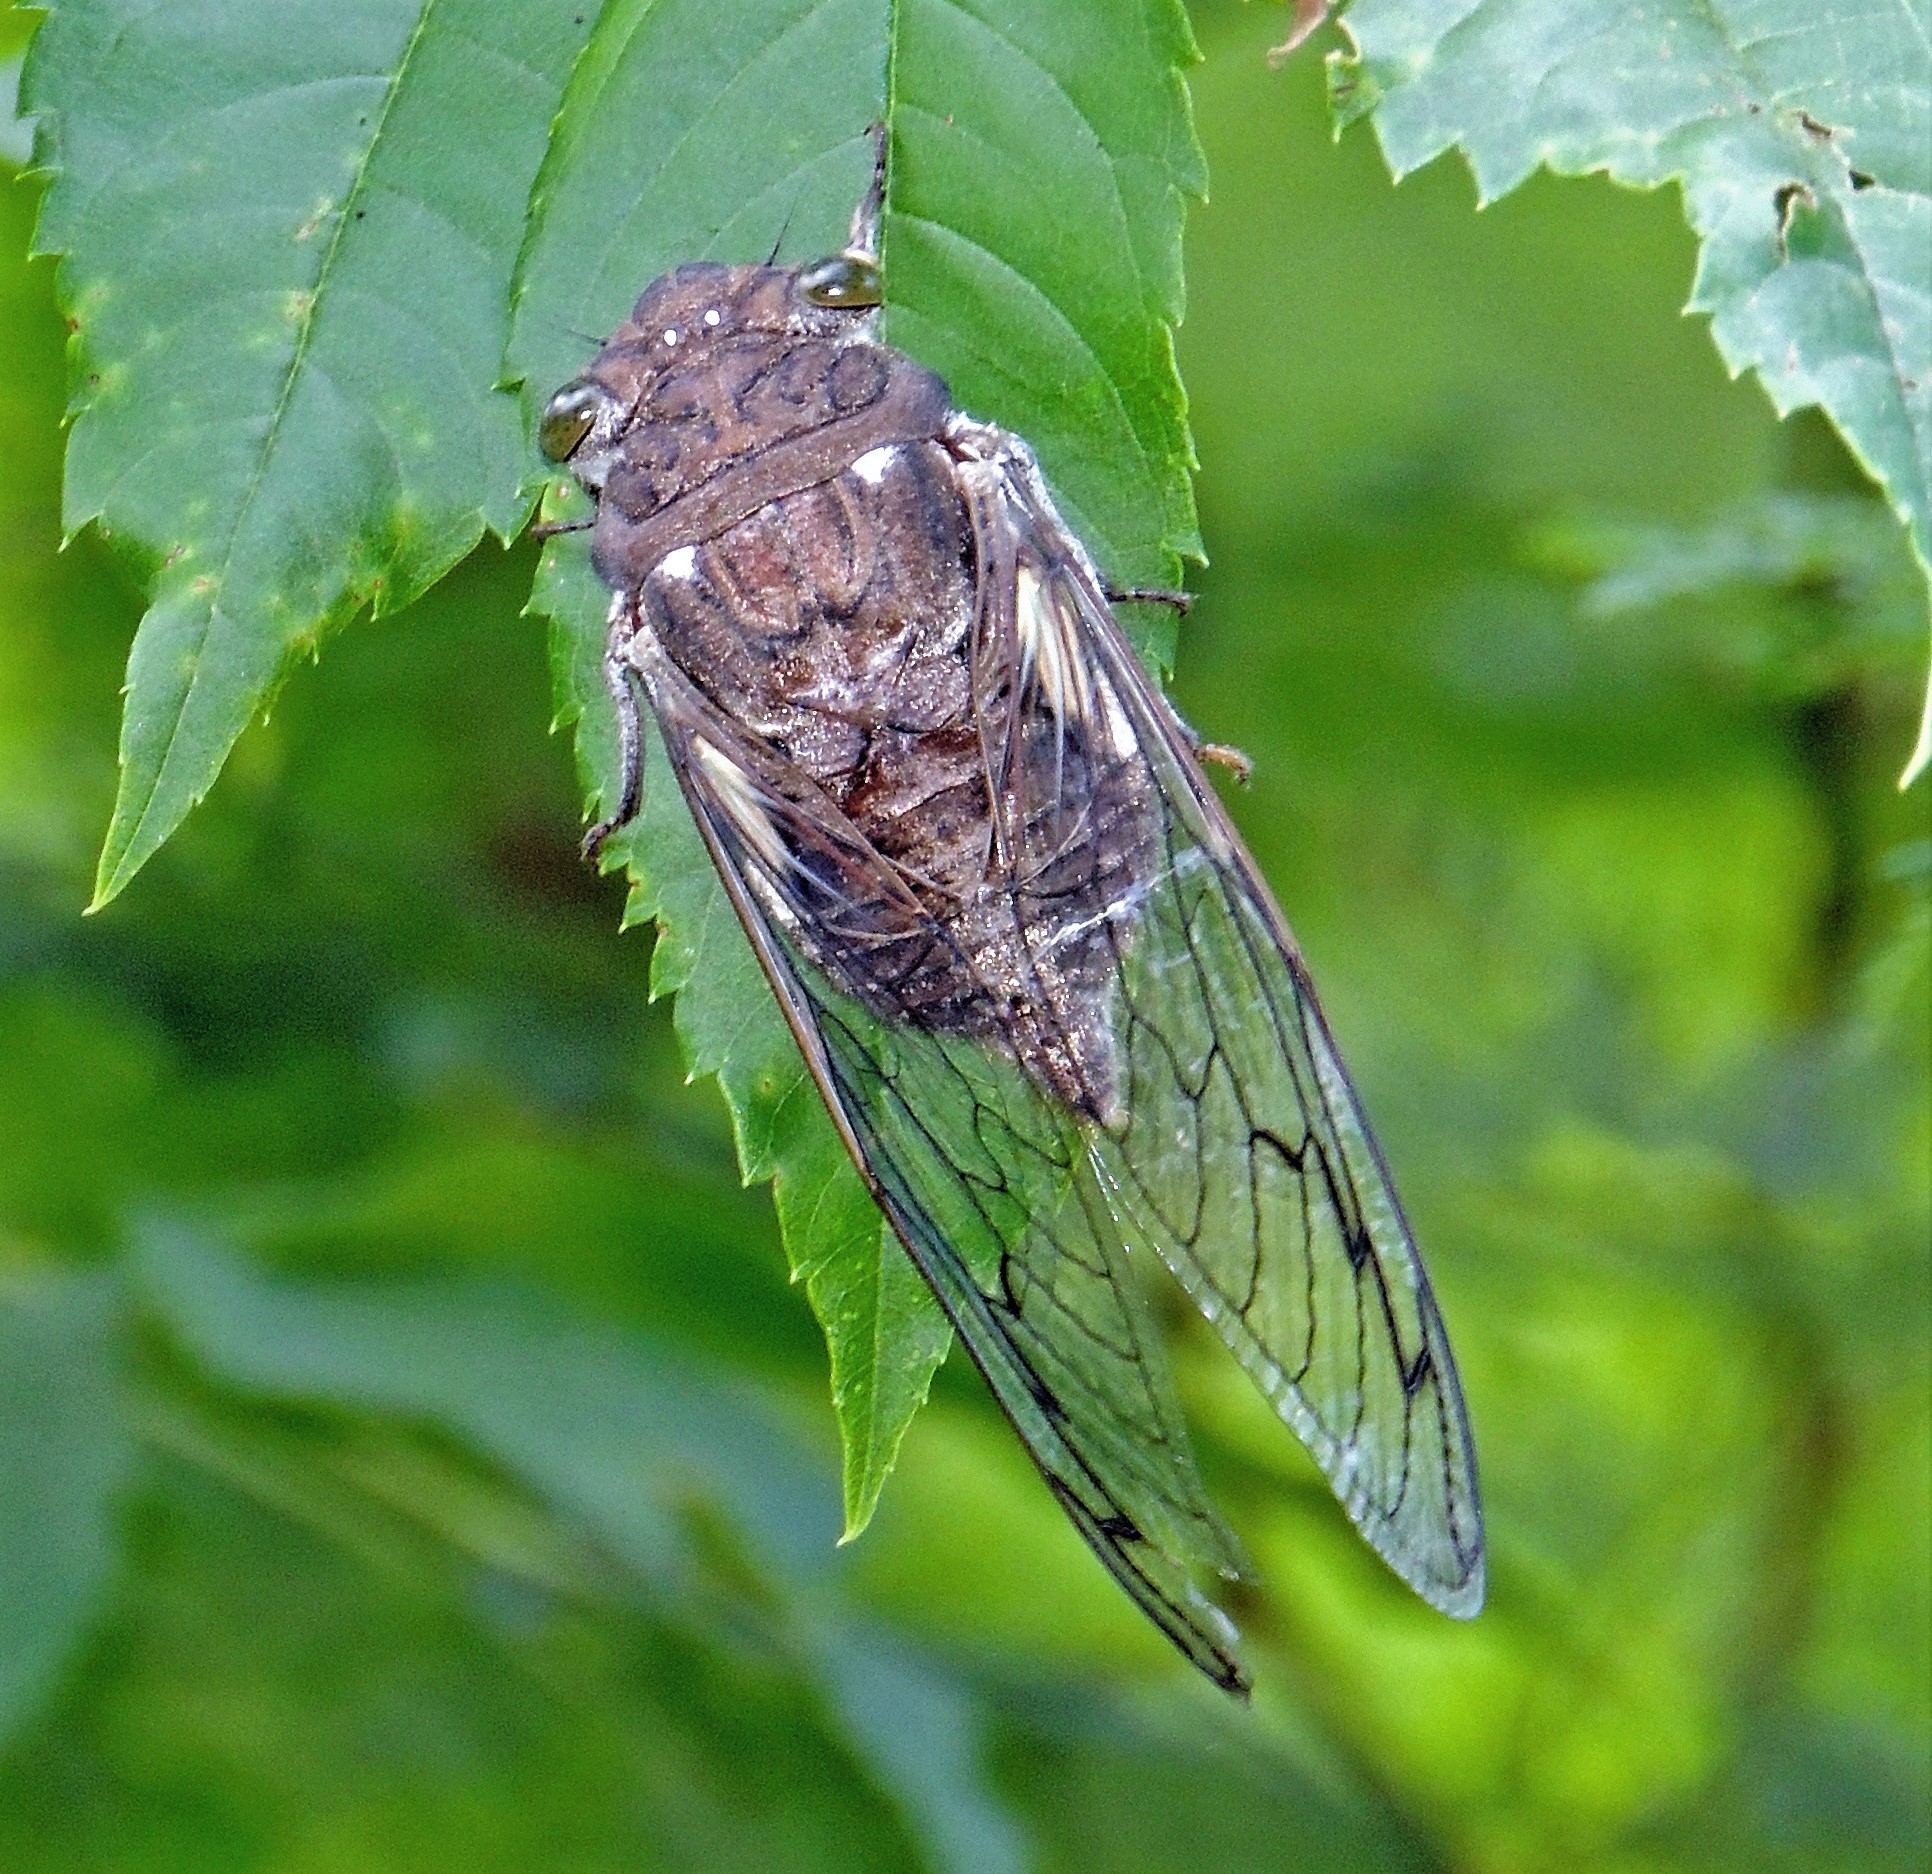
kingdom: Animalia
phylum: Arthropoda
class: Insecta
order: Hemiptera
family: Cicadidae
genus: Quesada
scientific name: Quesada gigas
